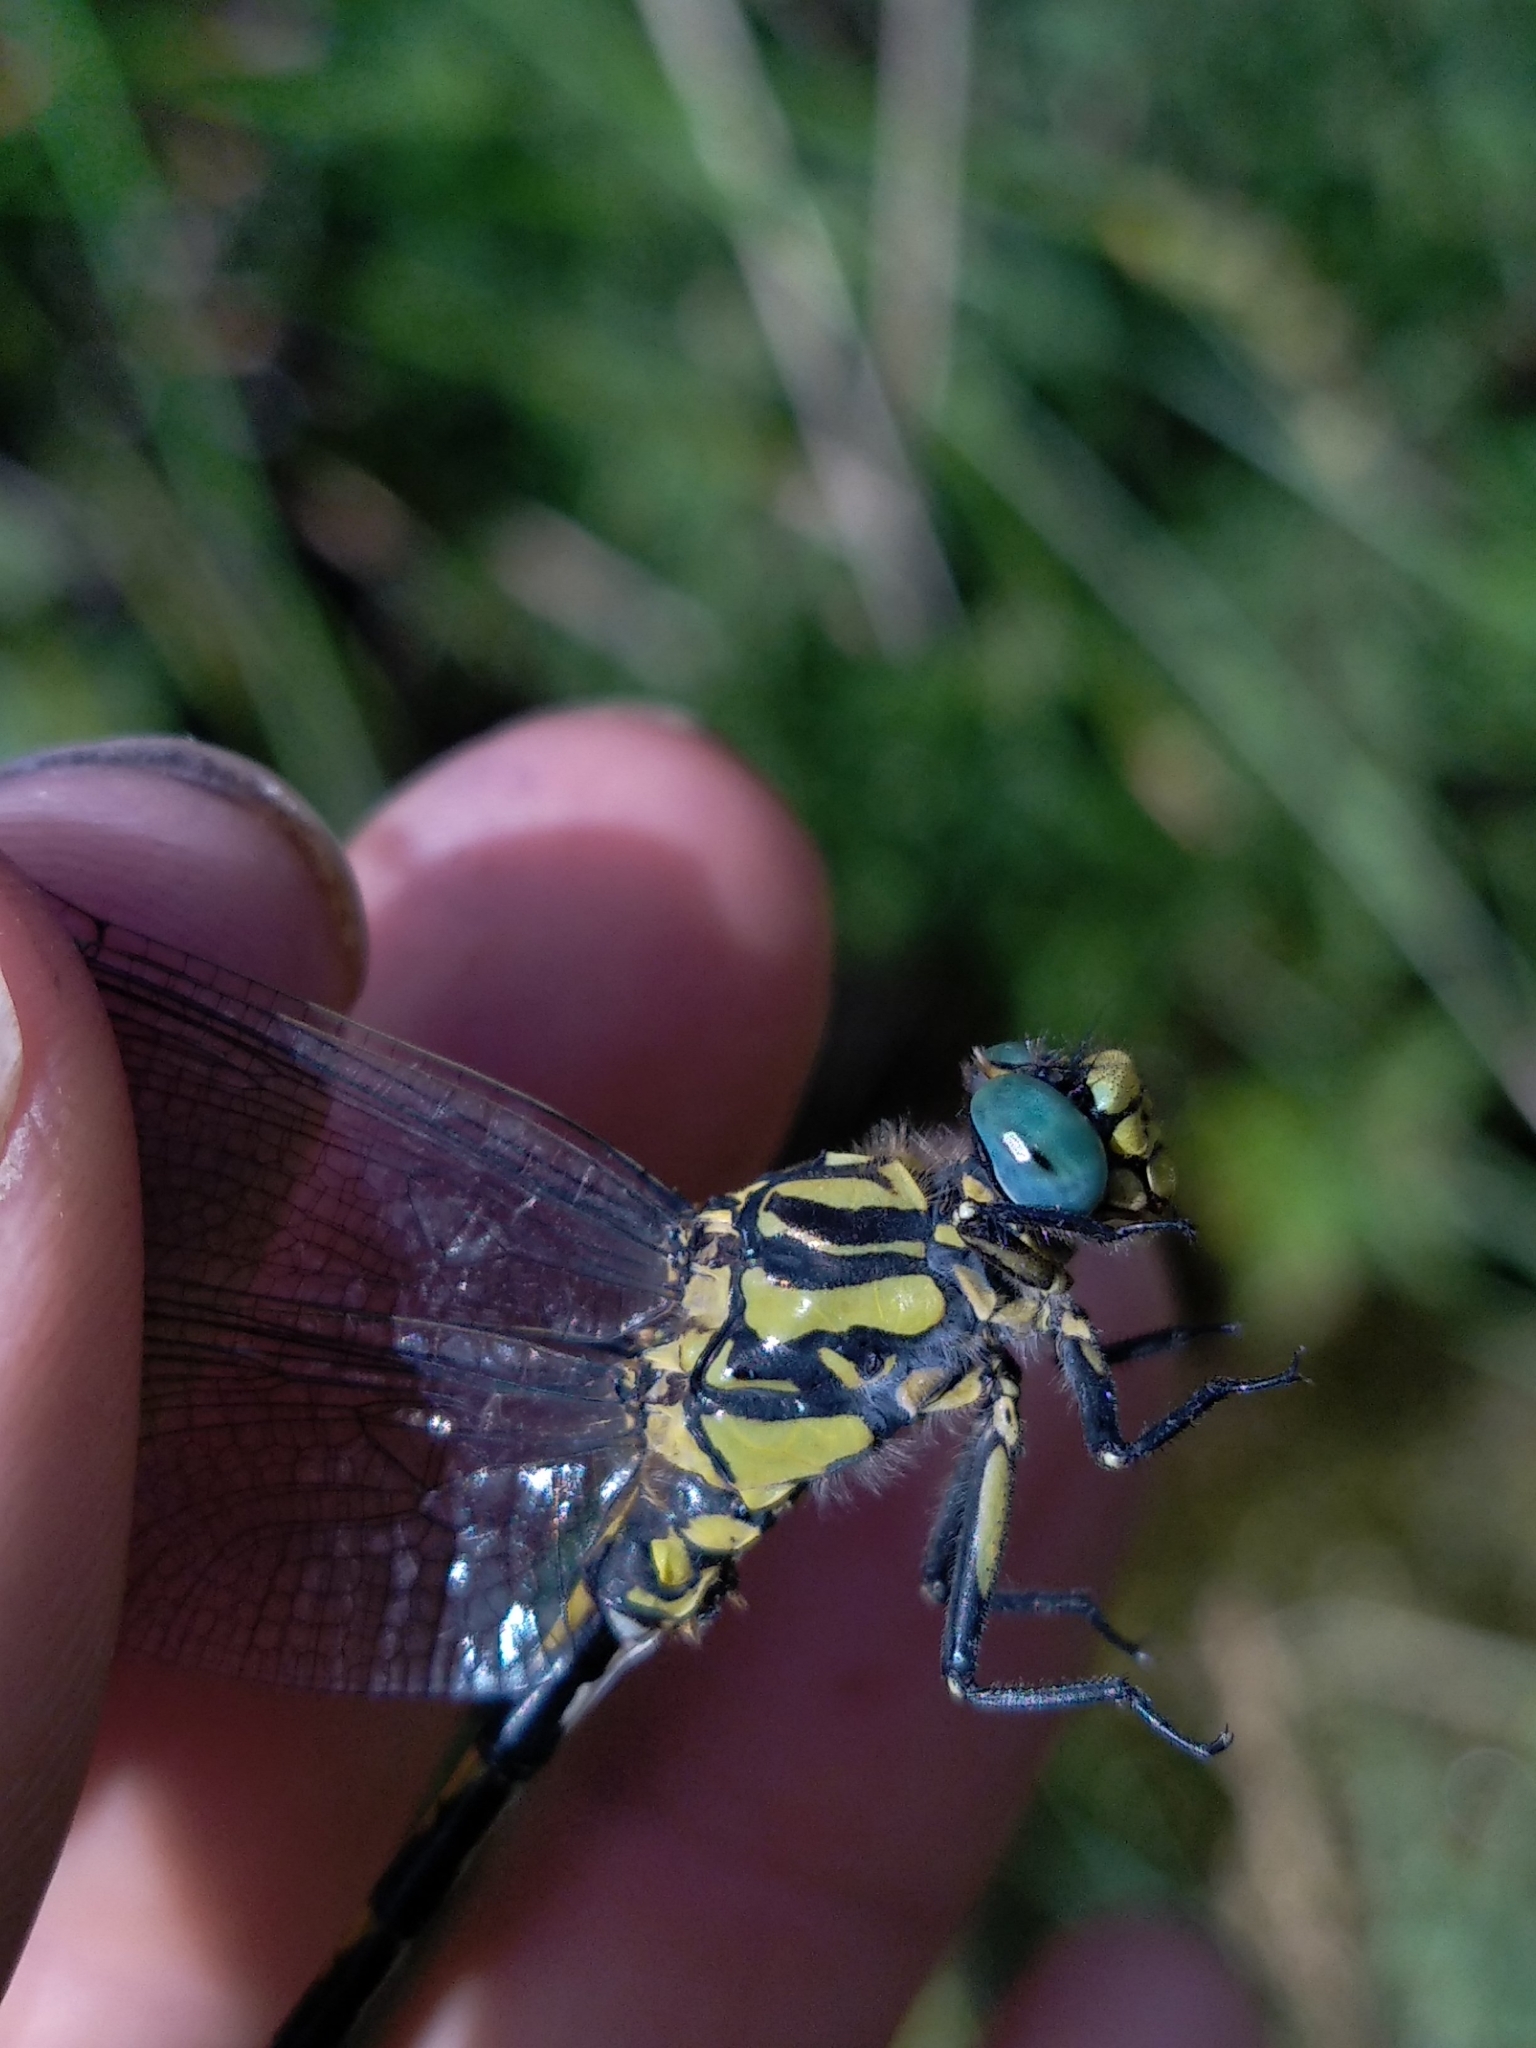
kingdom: Animalia
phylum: Arthropoda
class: Insecta
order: Odonata
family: Gomphidae
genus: Onychogomphus
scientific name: Onychogomphus uncatus
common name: Large pincertail
